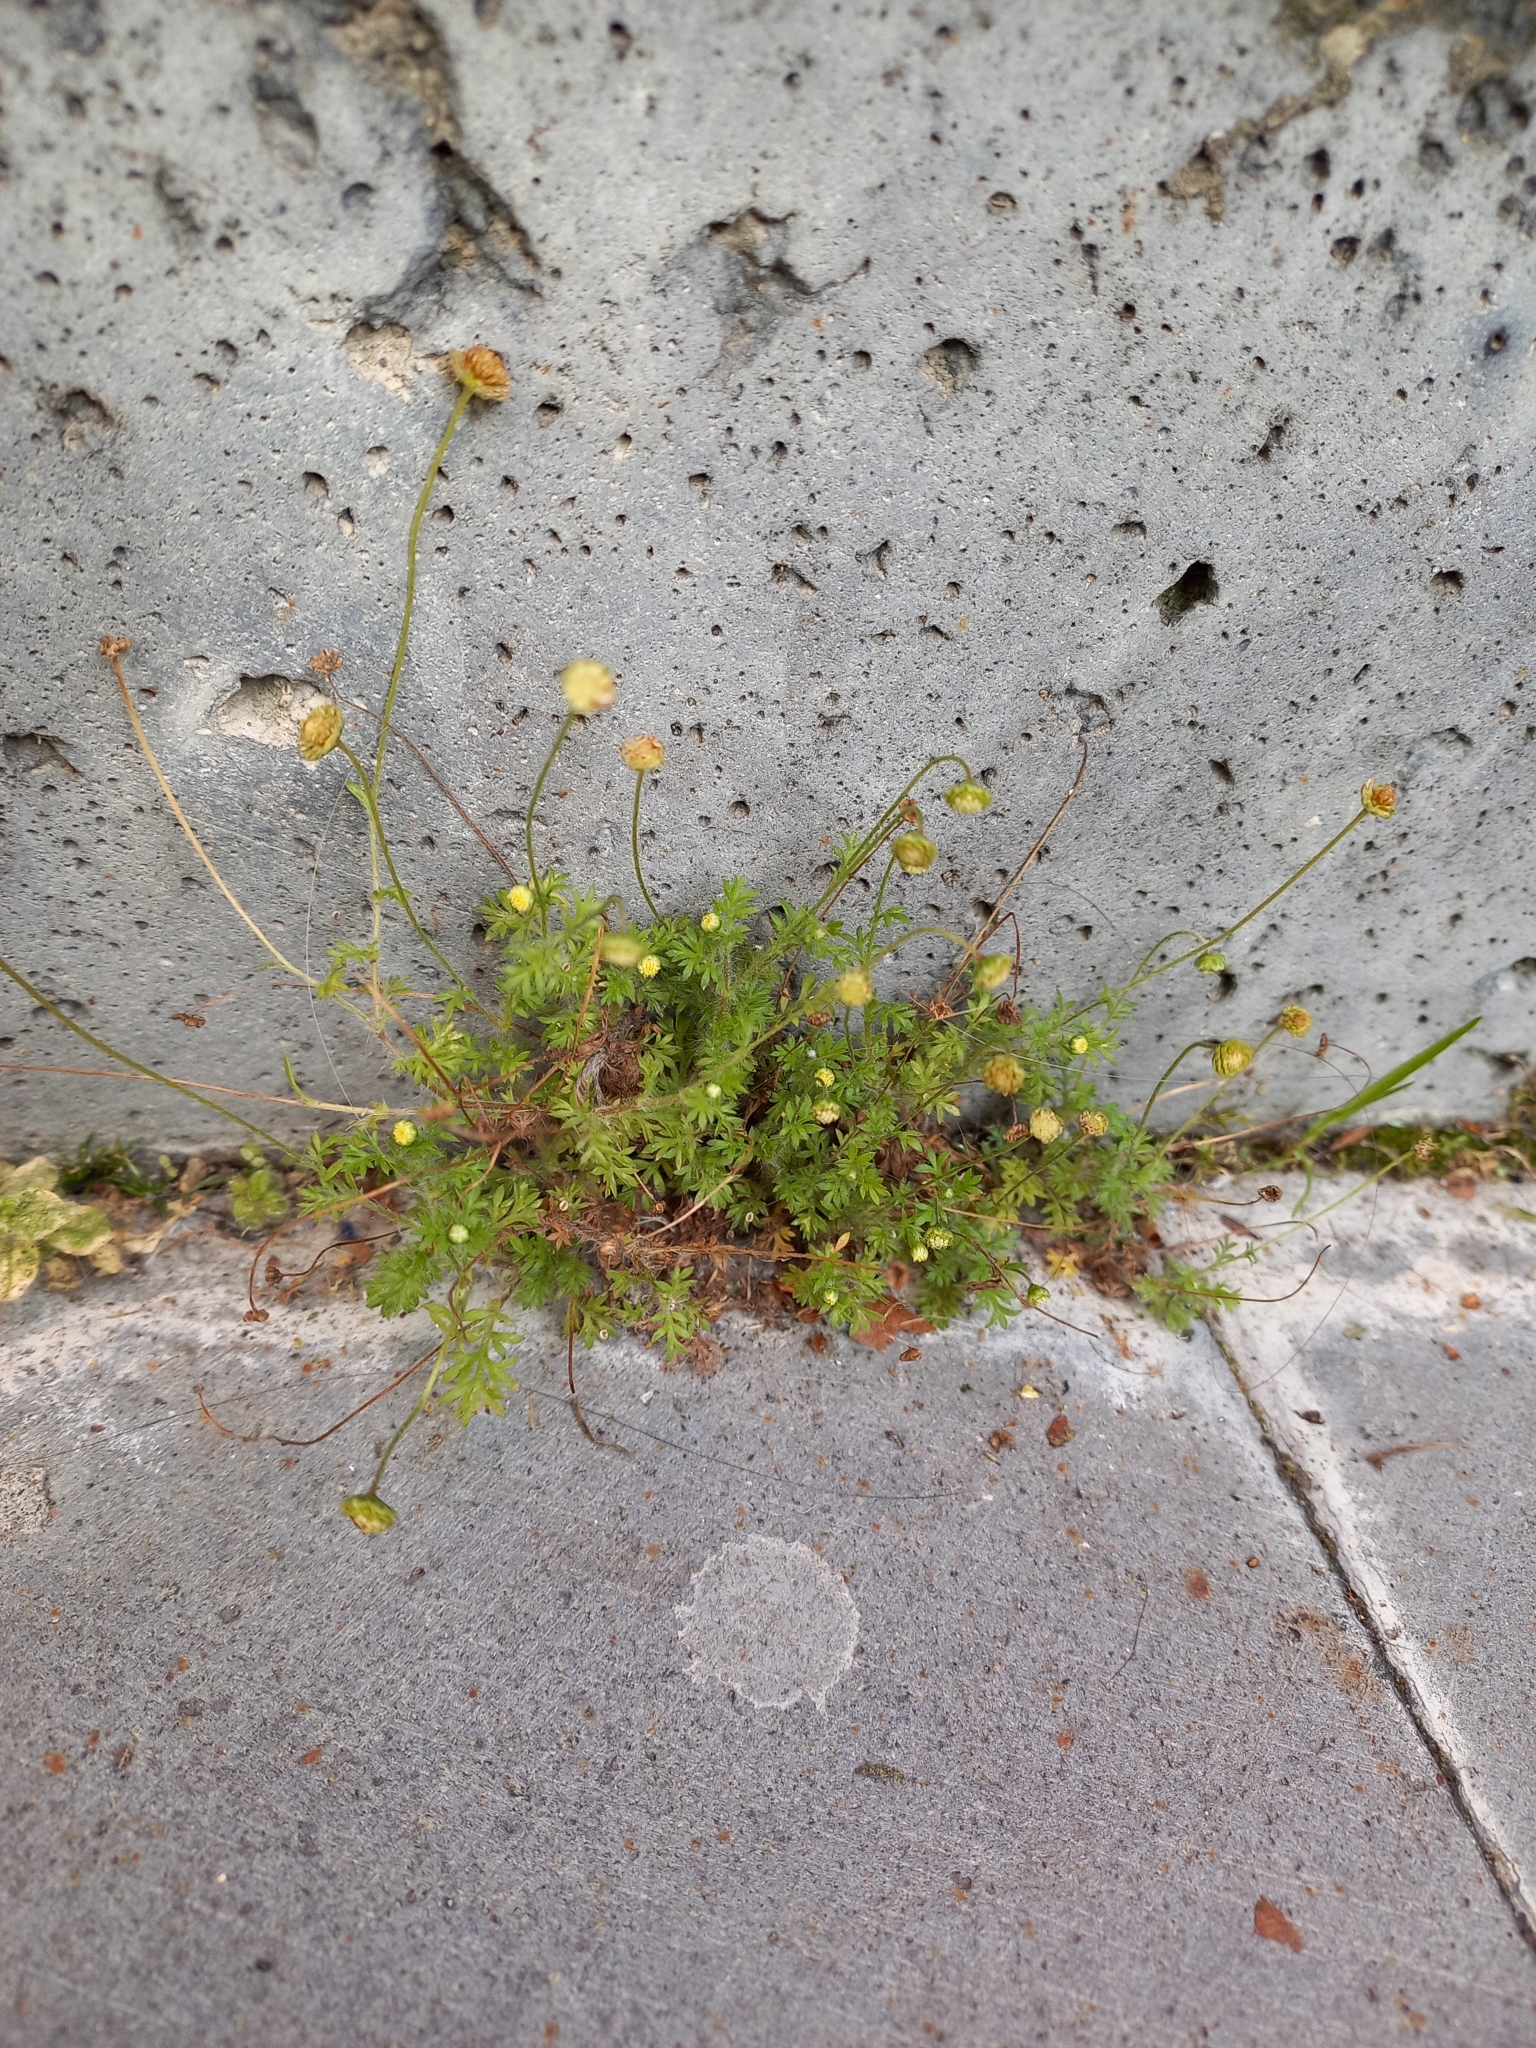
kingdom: Plantae
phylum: Tracheophyta
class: Magnoliopsida
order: Asterales
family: Asteraceae
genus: Cotula
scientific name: Cotula australis
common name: Australian waterbuttons
